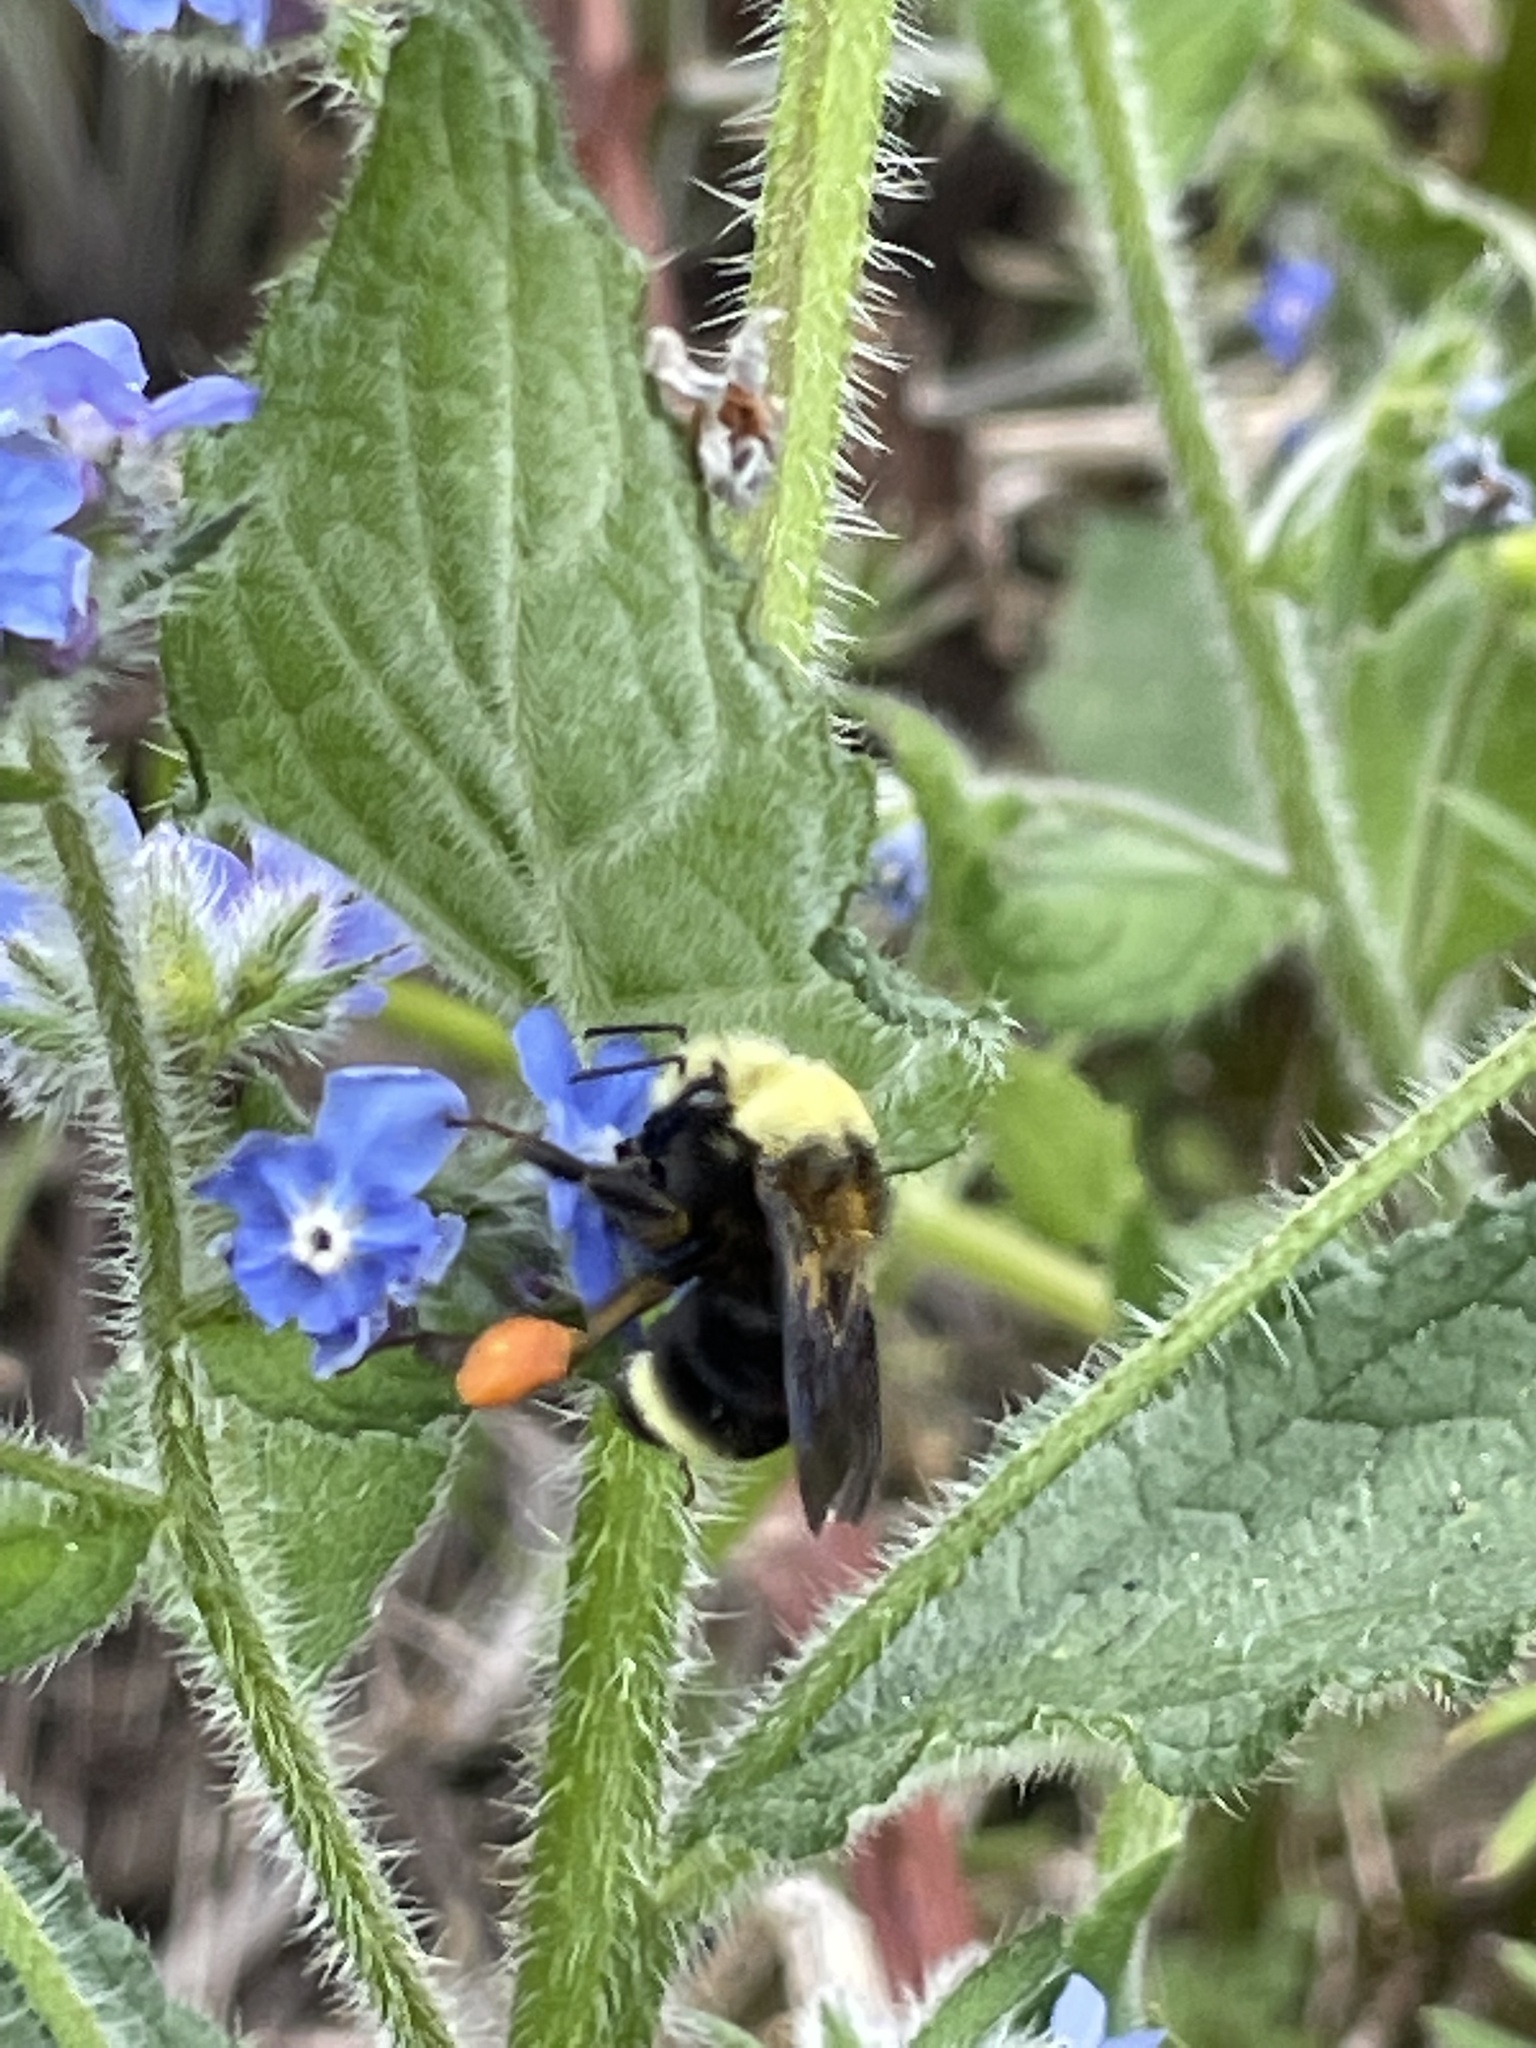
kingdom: Plantae
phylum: Tracheophyta
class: Magnoliopsida
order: Boraginales
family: Boraginaceae
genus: Pentaglottis
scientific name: Pentaglottis sempervirens
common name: Green alkanet
